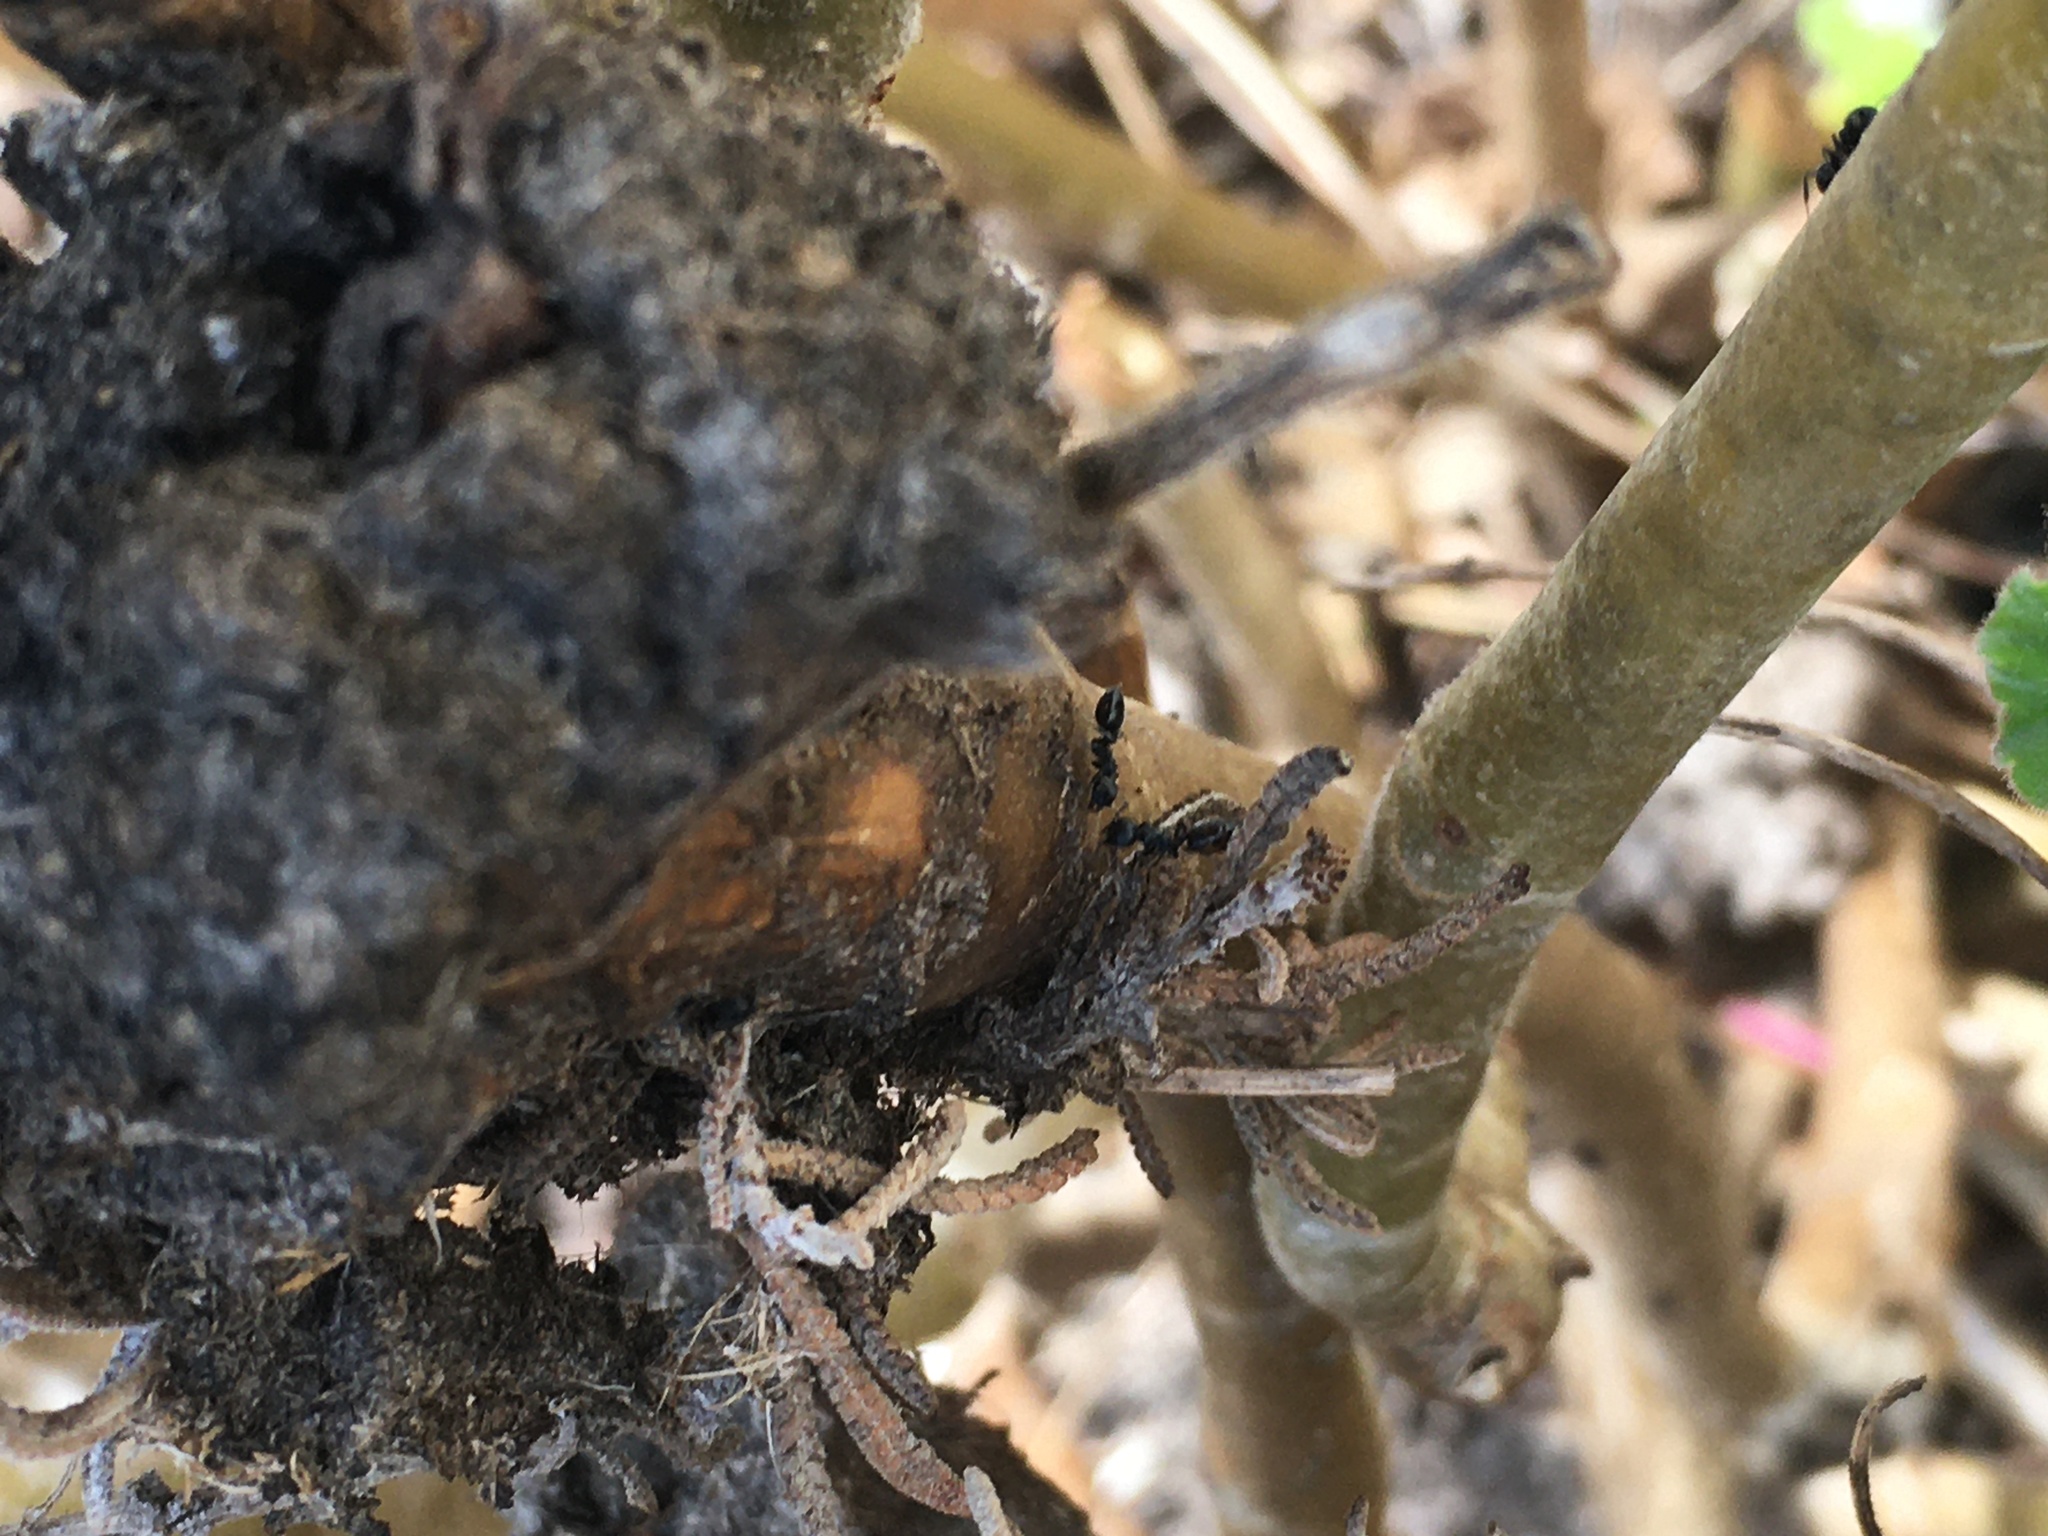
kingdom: Animalia
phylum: Arthropoda
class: Insecta
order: Hymenoptera
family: Formicidae
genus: Crematogaster
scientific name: Crematogaster peringueyi
